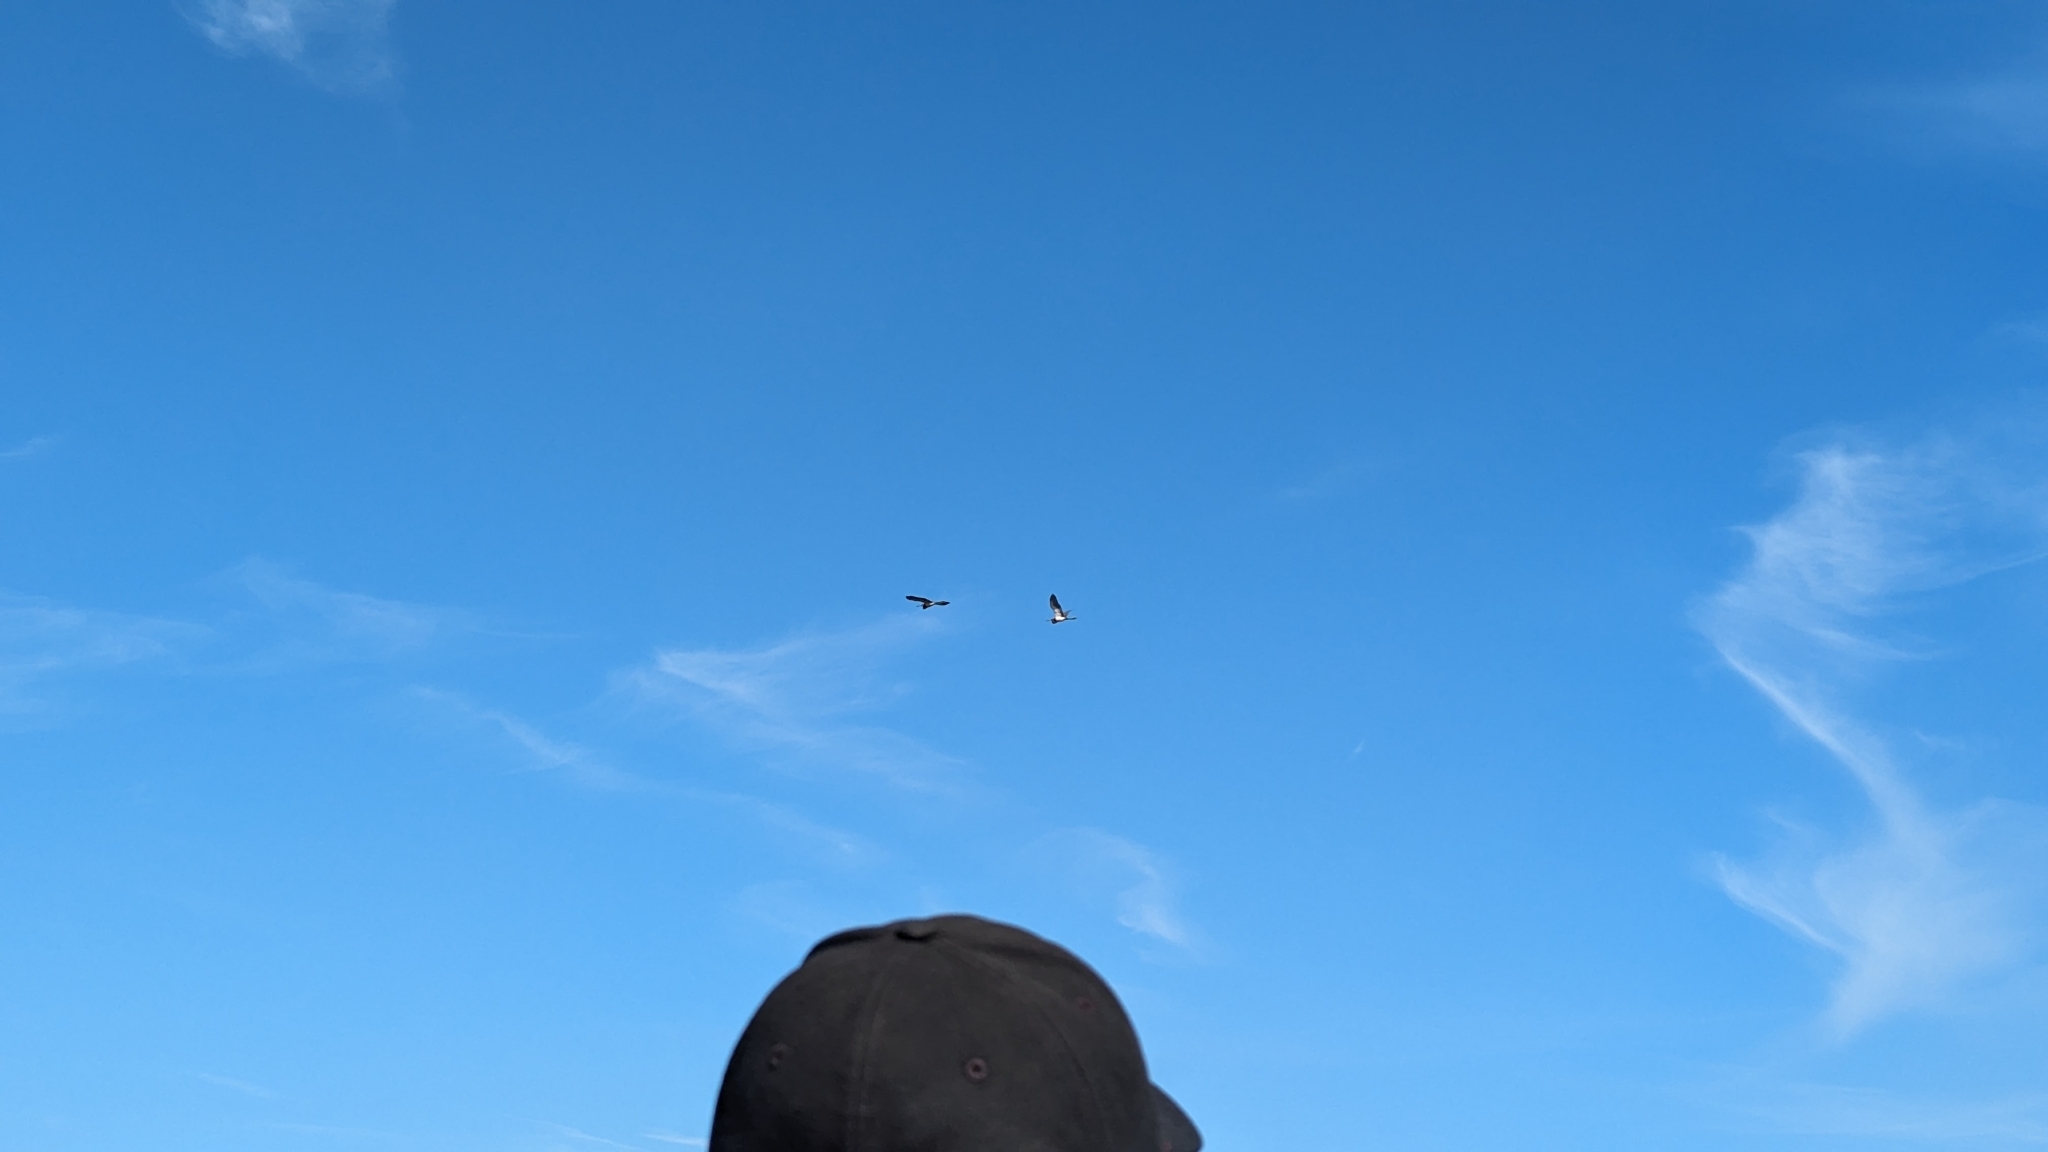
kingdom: Animalia
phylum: Chordata
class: Aves
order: Pelecaniformes
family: Ardeidae
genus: Egretta
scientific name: Egretta tricolor
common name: Tricolored heron
